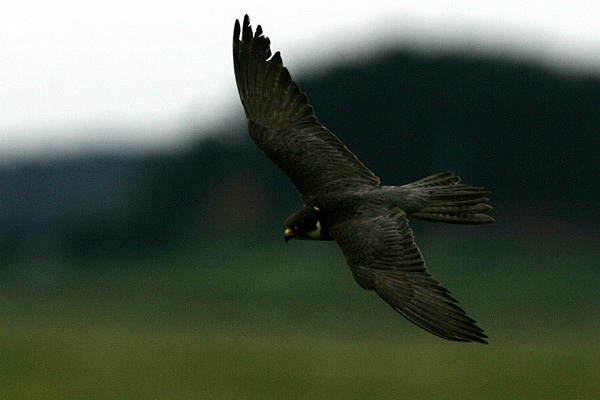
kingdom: Animalia
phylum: Chordata
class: Aves
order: Falconiformes
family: Falconidae
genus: Falco
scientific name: Falco subbuteo
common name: Eurasian hobby
